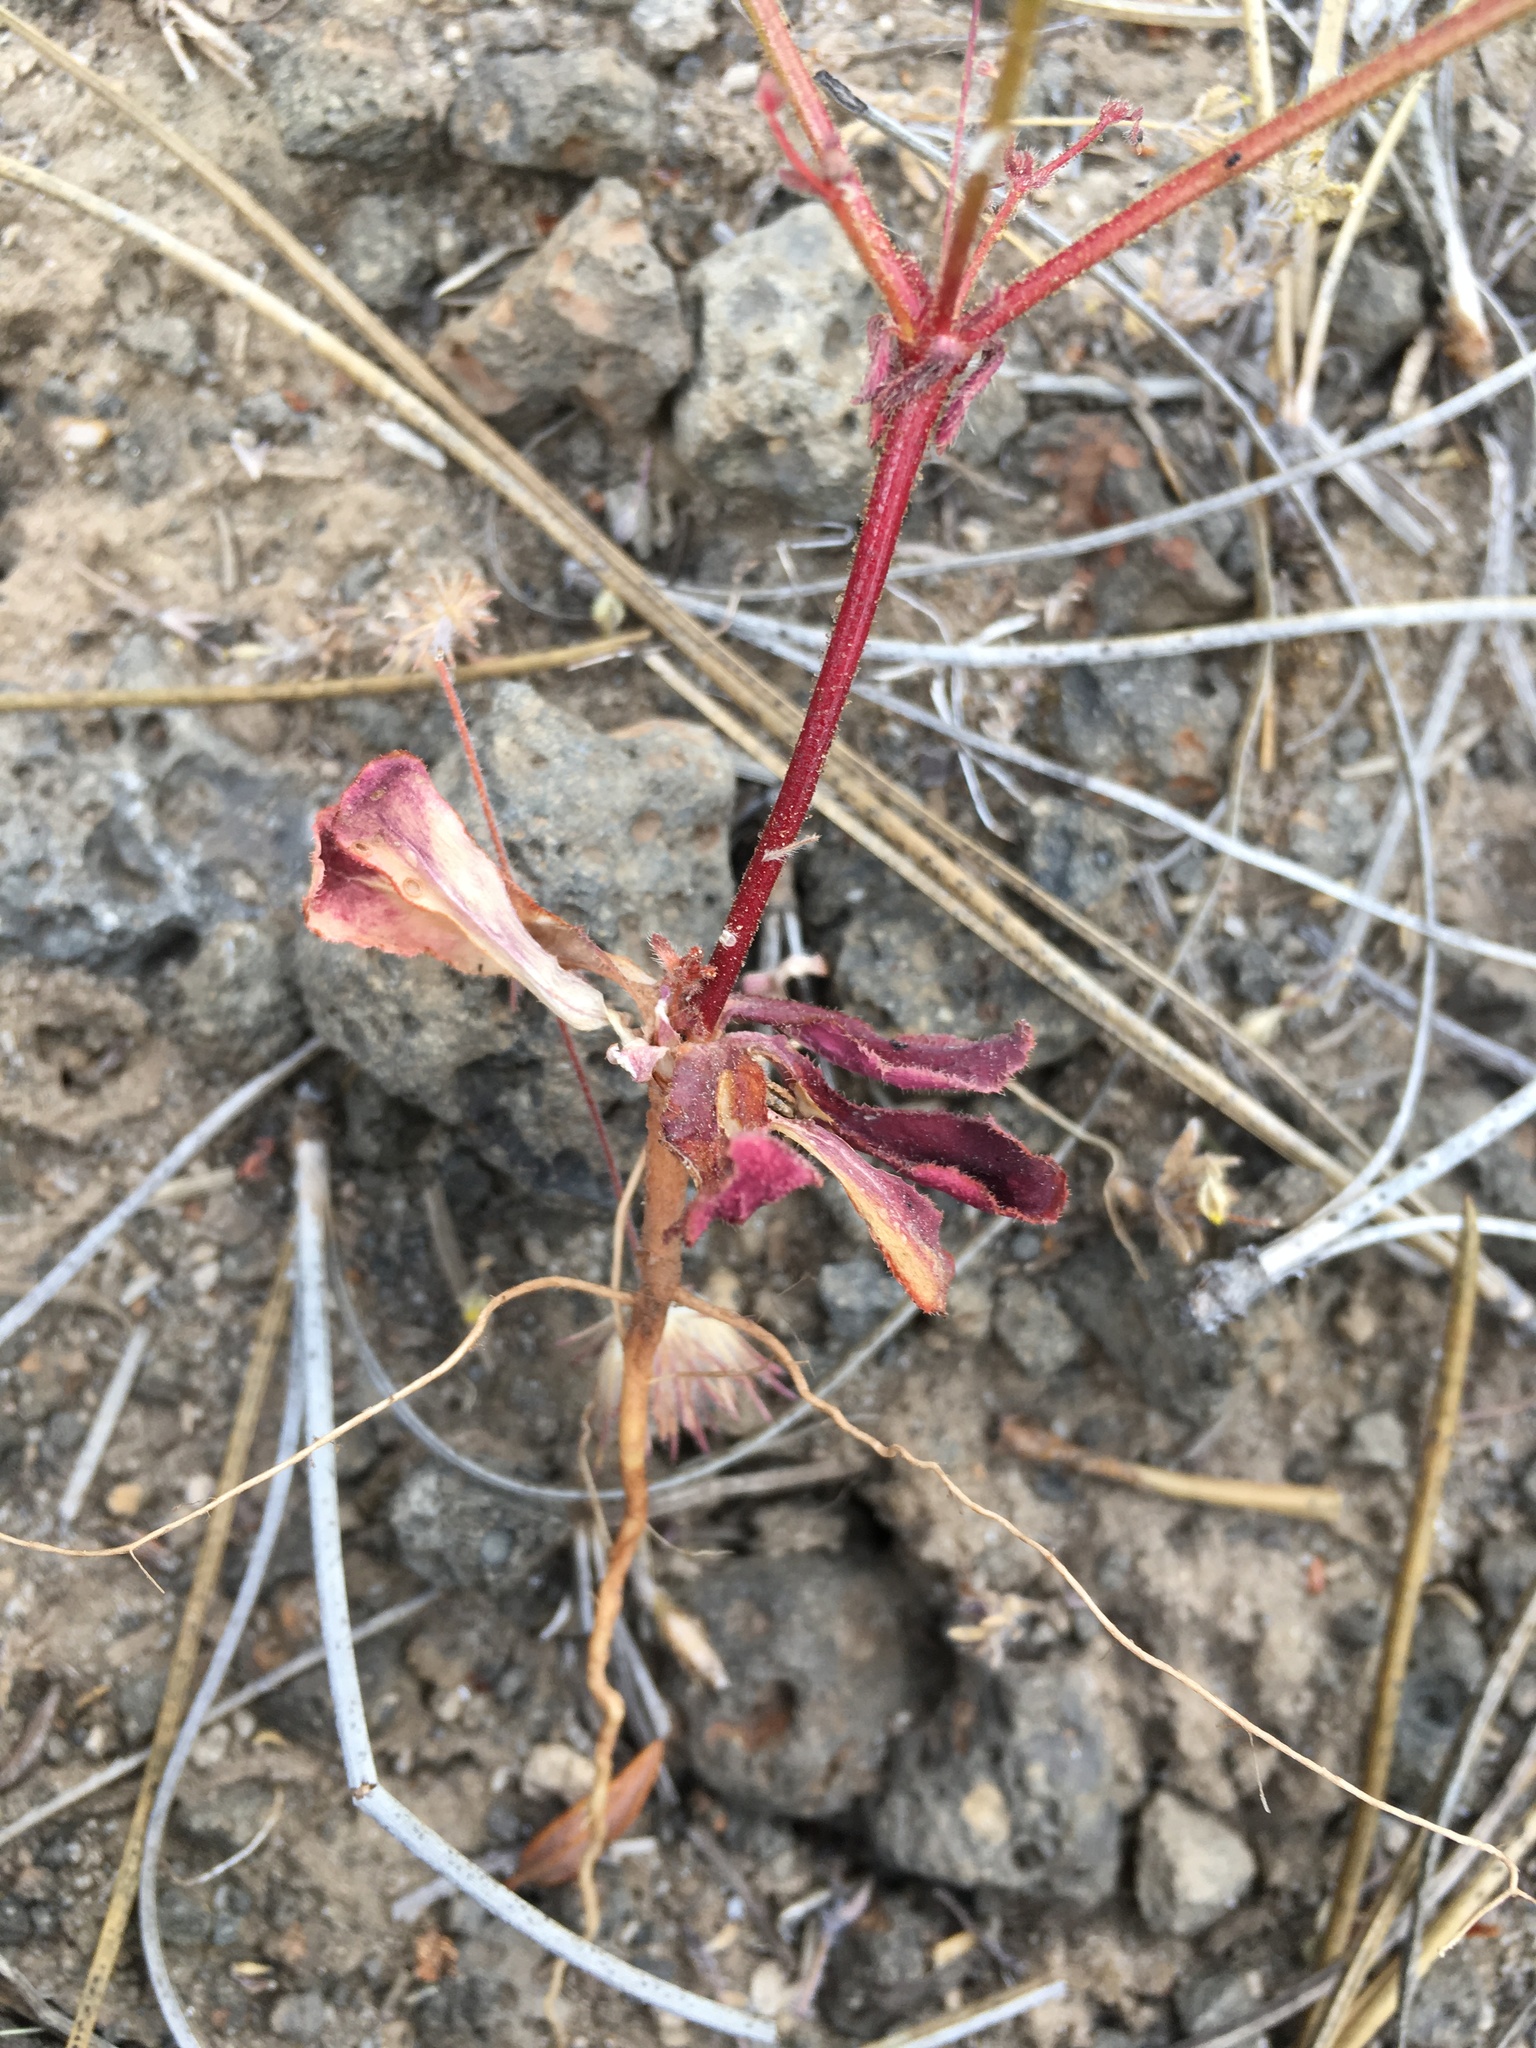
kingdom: Plantae
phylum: Tracheophyta
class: Magnoliopsida
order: Caryophyllales
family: Polygonaceae
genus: Eriogonum
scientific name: Eriogonum hirtiflorum
